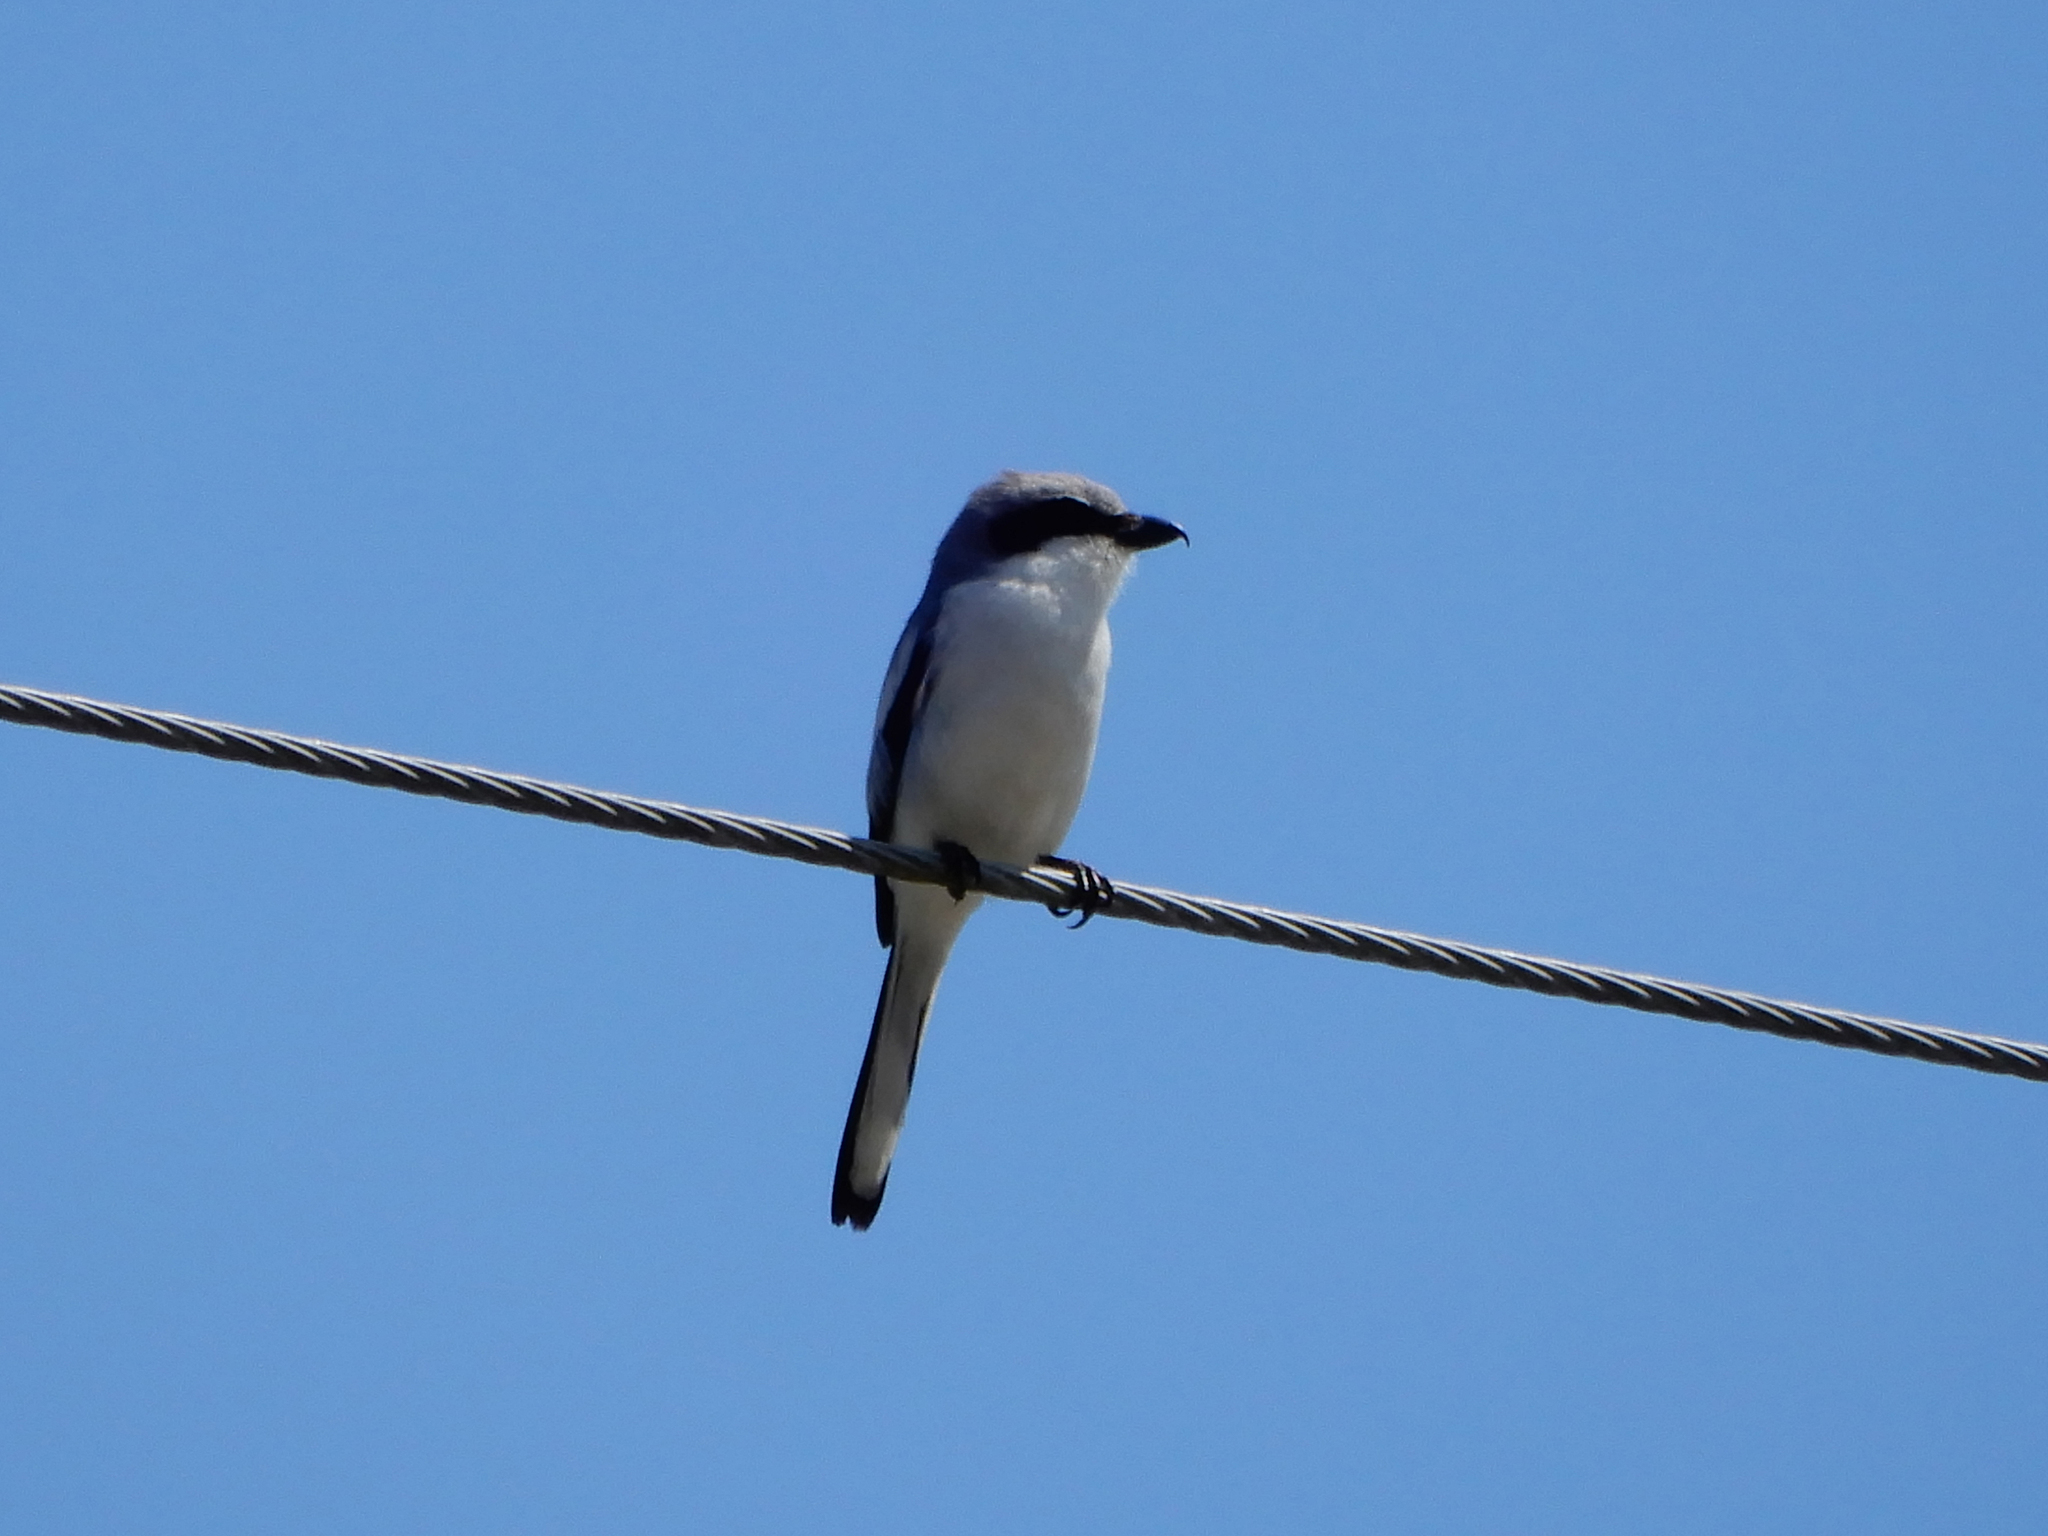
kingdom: Animalia
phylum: Chordata
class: Aves
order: Passeriformes
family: Laniidae
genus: Lanius
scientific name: Lanius ludovicianus
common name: Loggerhead shrike
